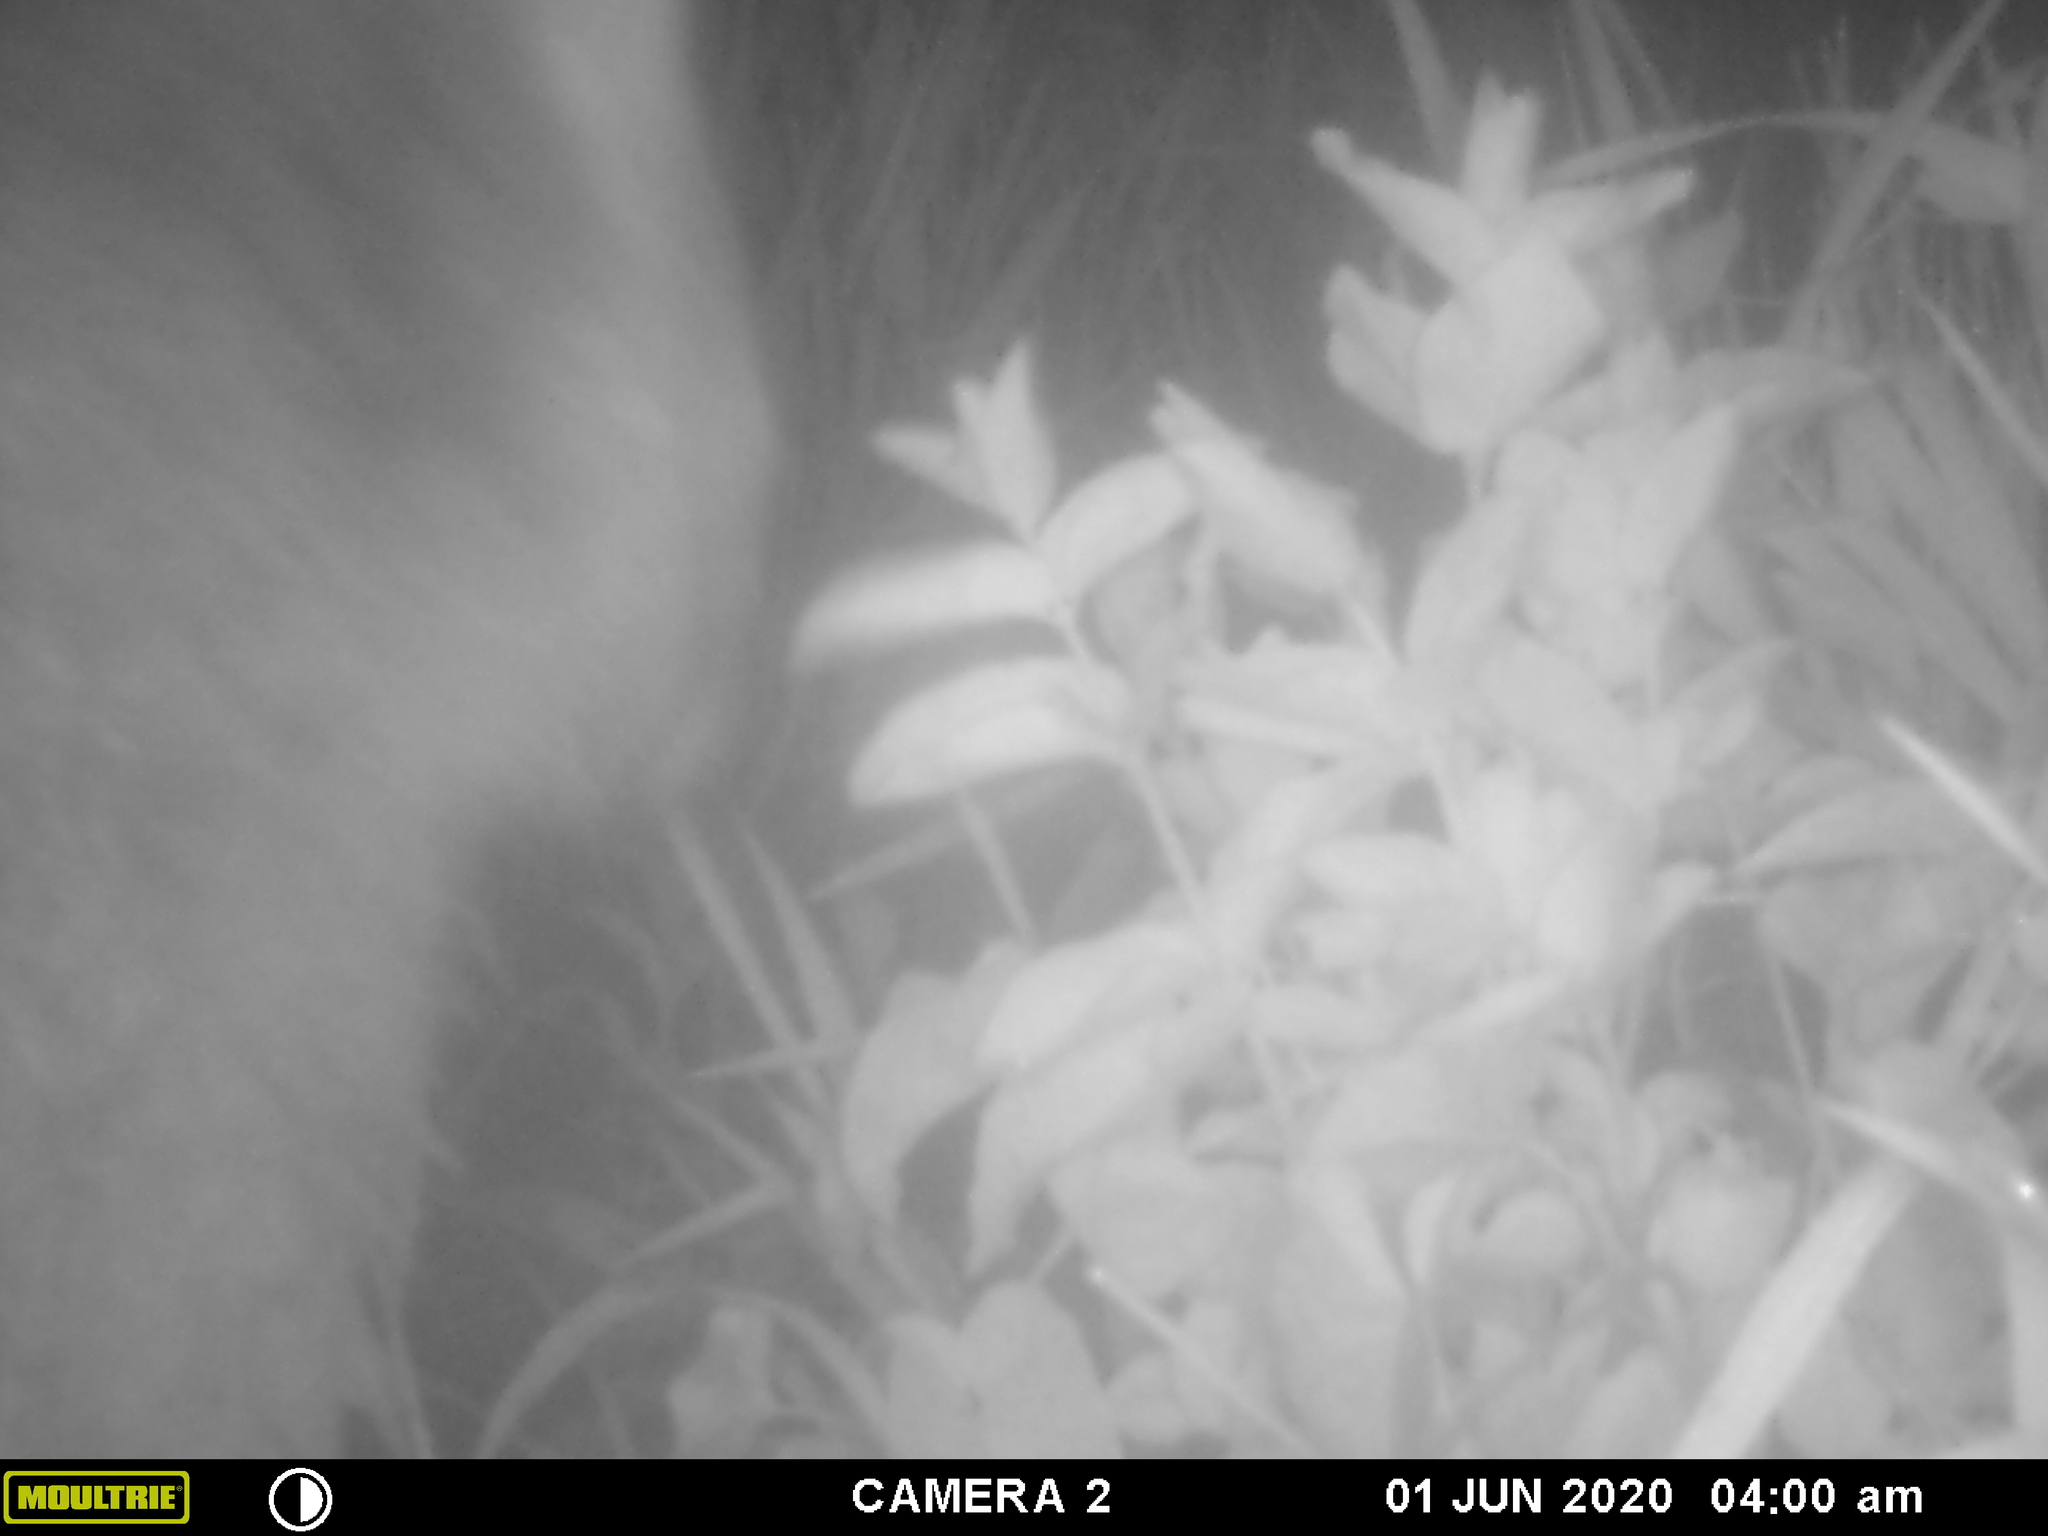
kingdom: Animalia
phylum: Chordata
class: Mammalia
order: Carnivora
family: Procyonidae
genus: Procyon
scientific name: Procyon lotor
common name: Raccoon
